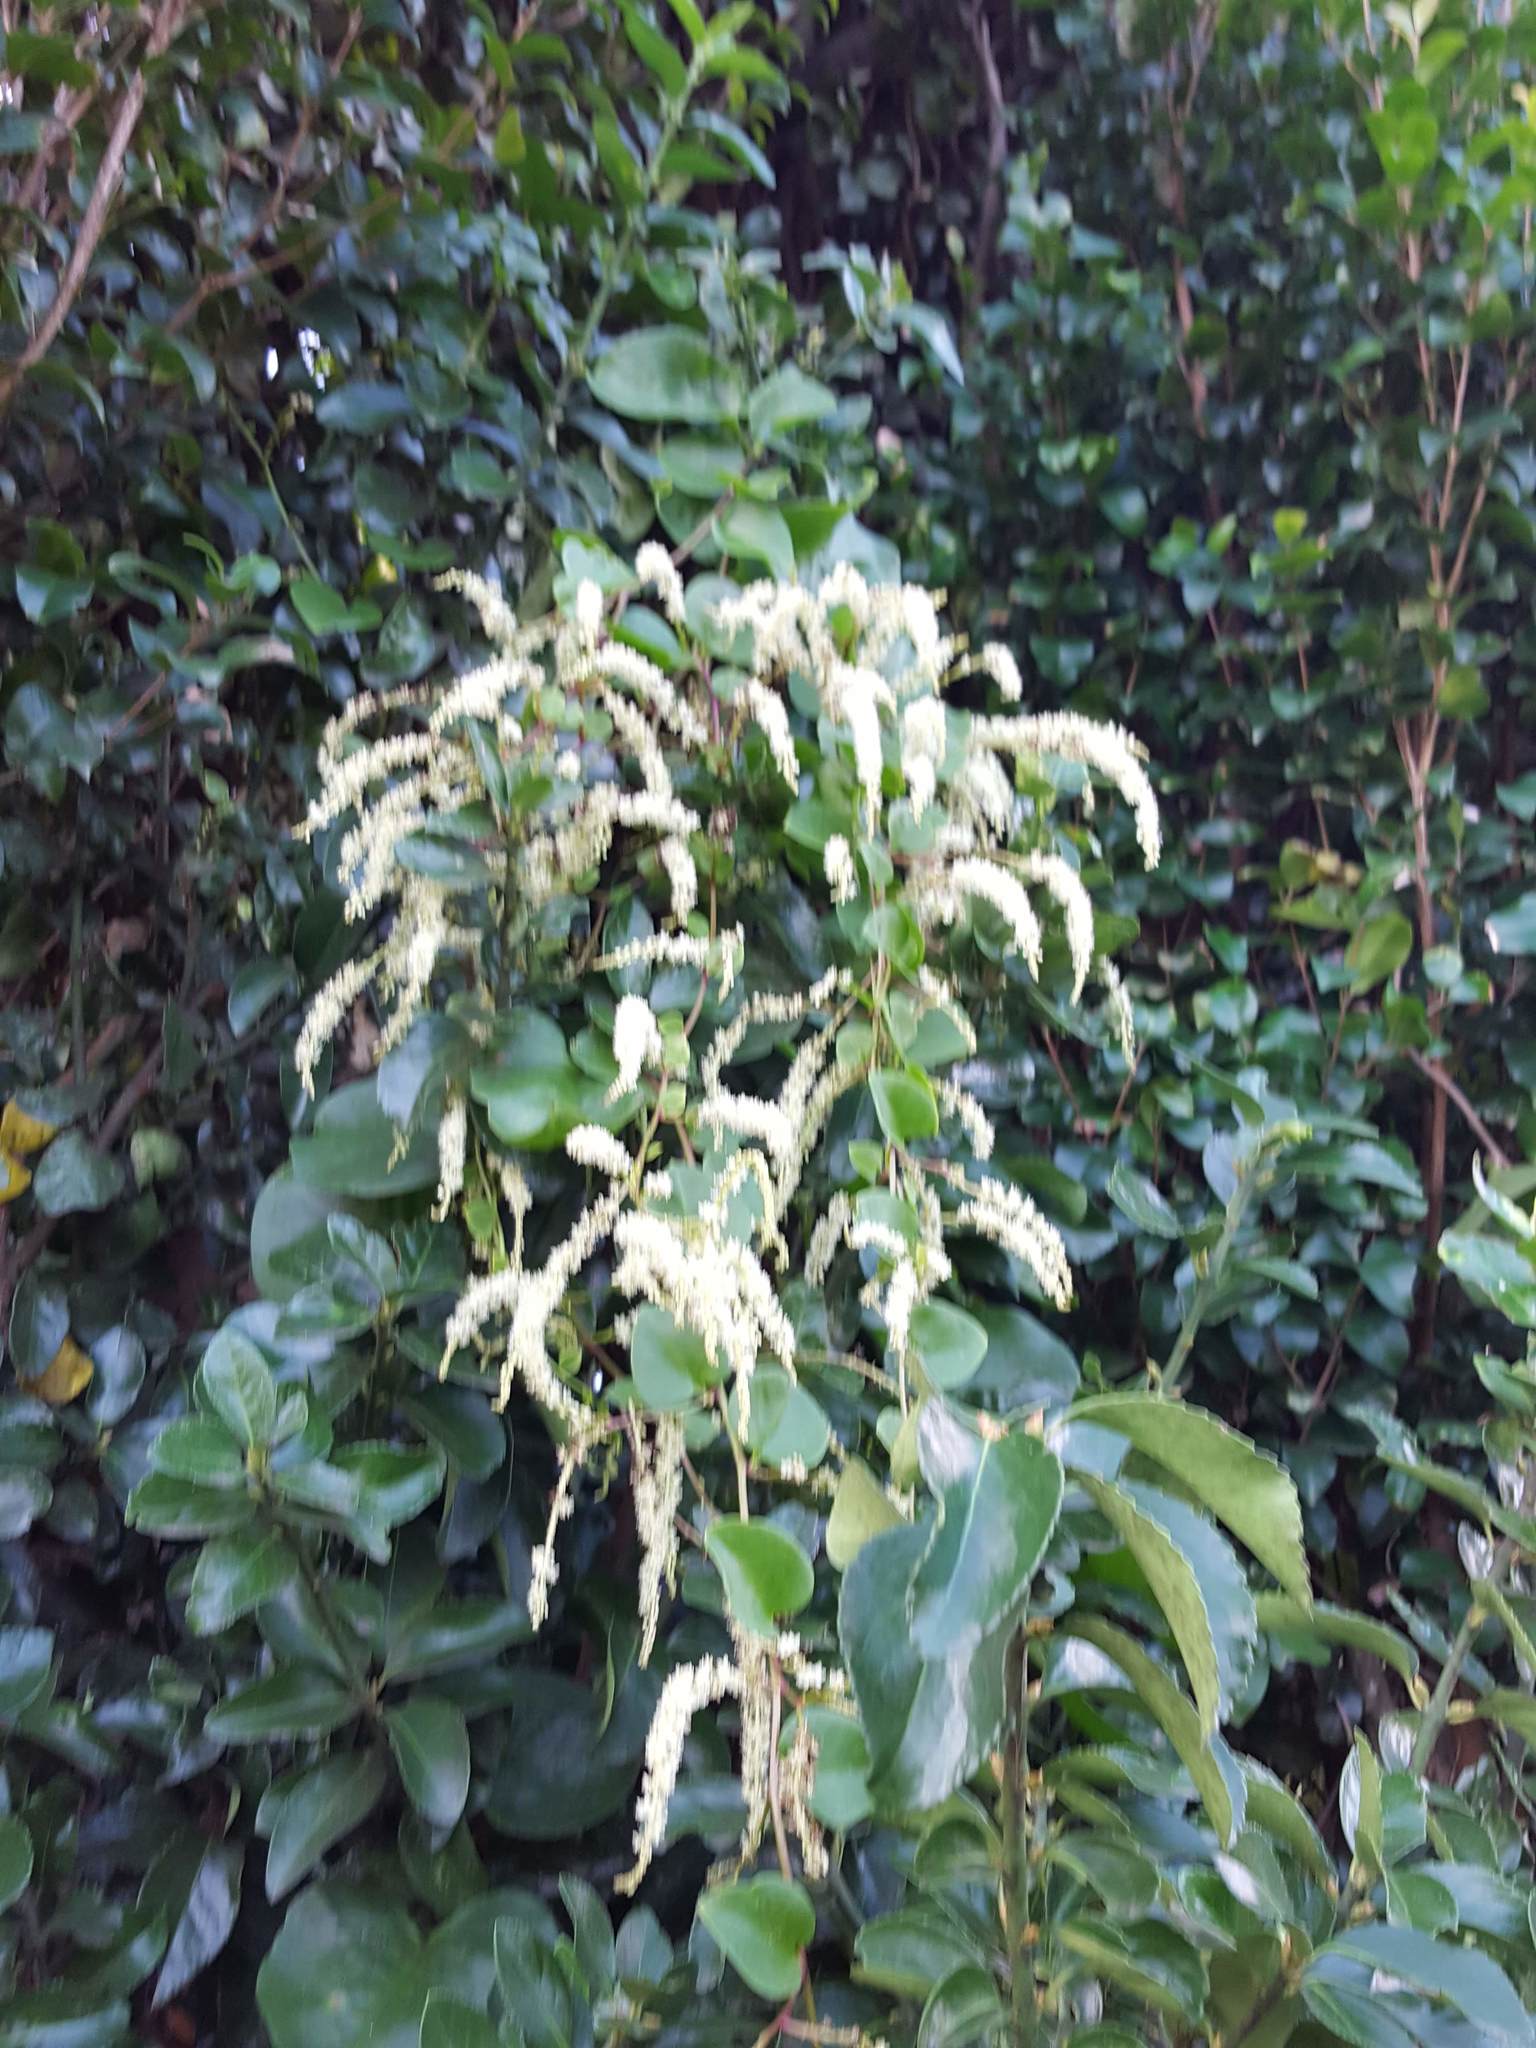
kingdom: Plantae
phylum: Tracheophyta
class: Magnoliopsida
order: Caryophyllales
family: Basellaceae
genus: Anredera
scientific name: Anredera cordifolia
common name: Heartleaf madeiravine
